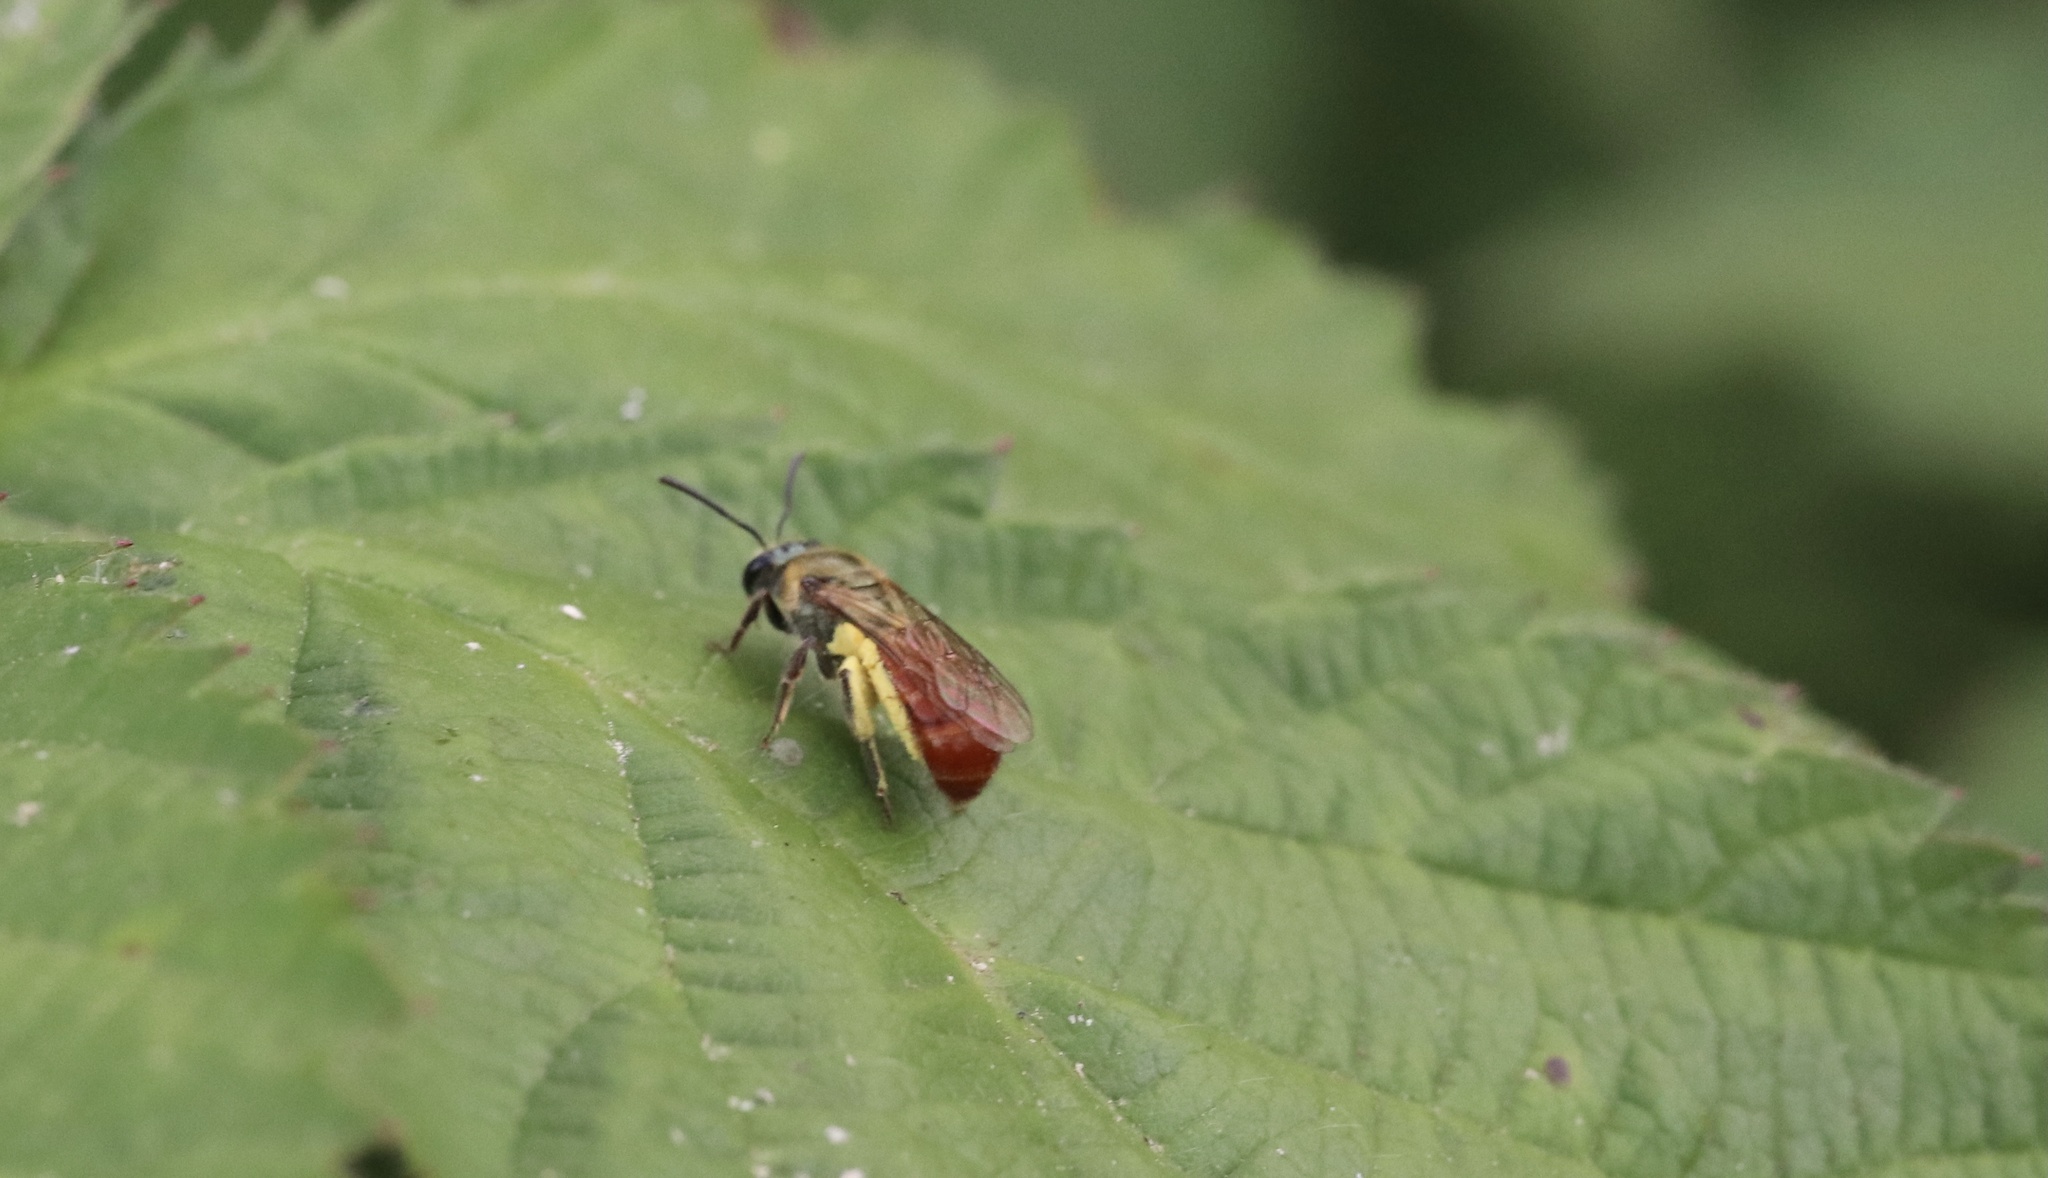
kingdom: Animalia
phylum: Arthropoda
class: Insecta
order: Hymenoptera
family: Halictidae
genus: Corynura
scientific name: Corynura corinogaster
